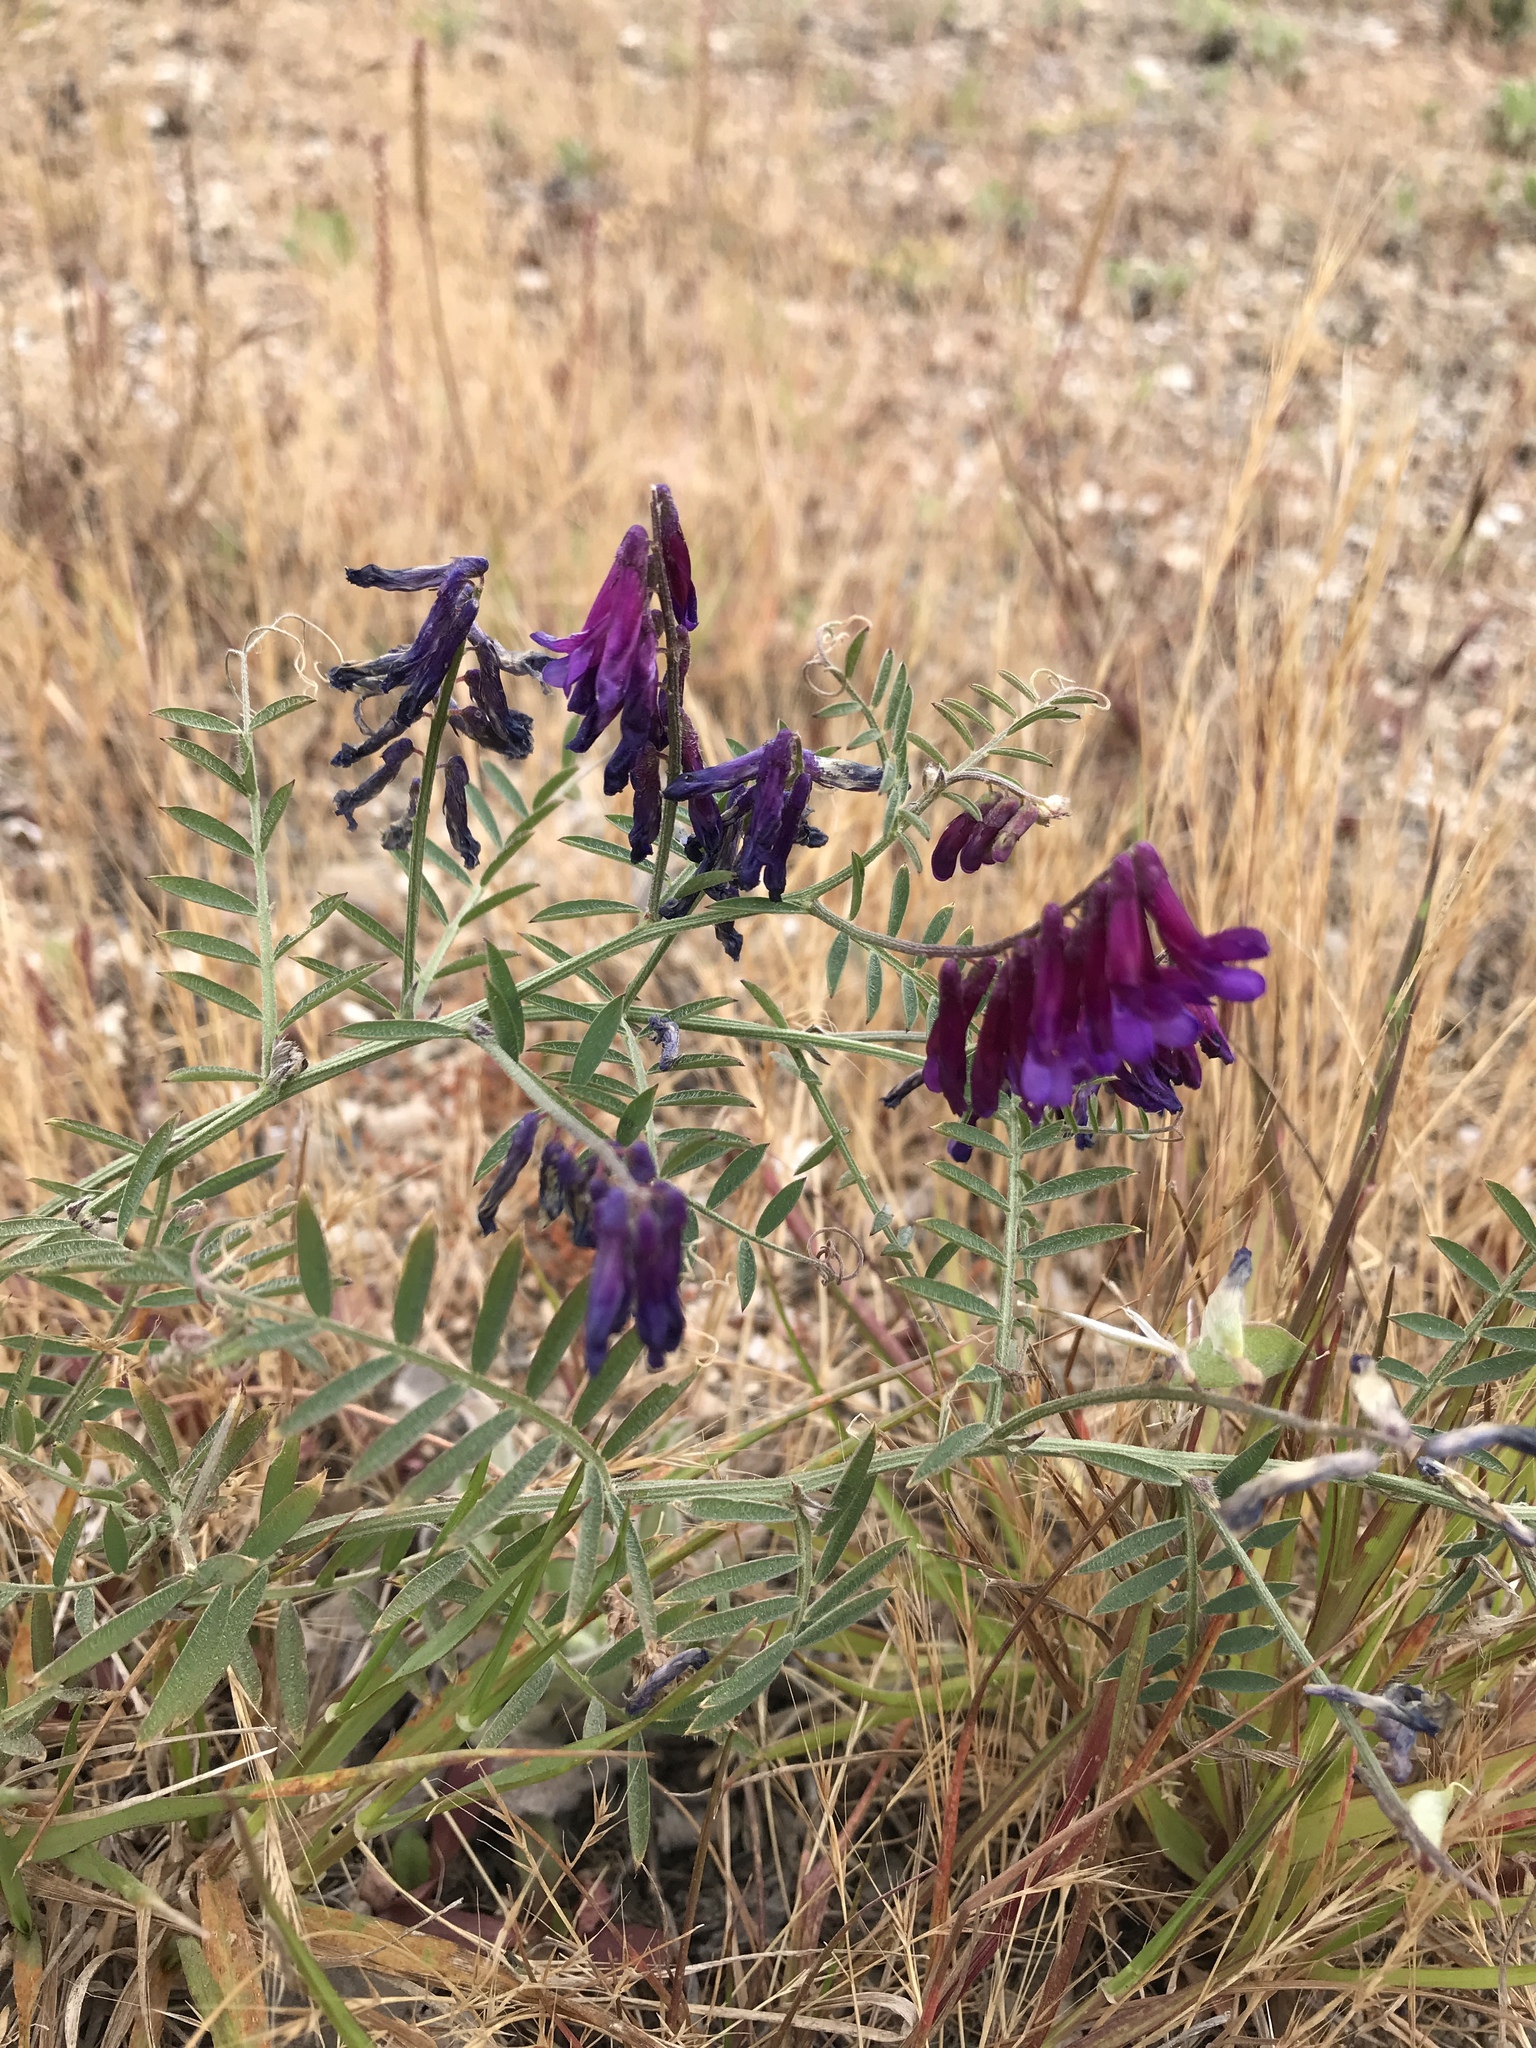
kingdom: Plantae
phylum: Tracheophyta
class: Magnoliopsida
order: Fabales
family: Fabaceae
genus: Vicia
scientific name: Vicia villosa
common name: Fodder vetch
